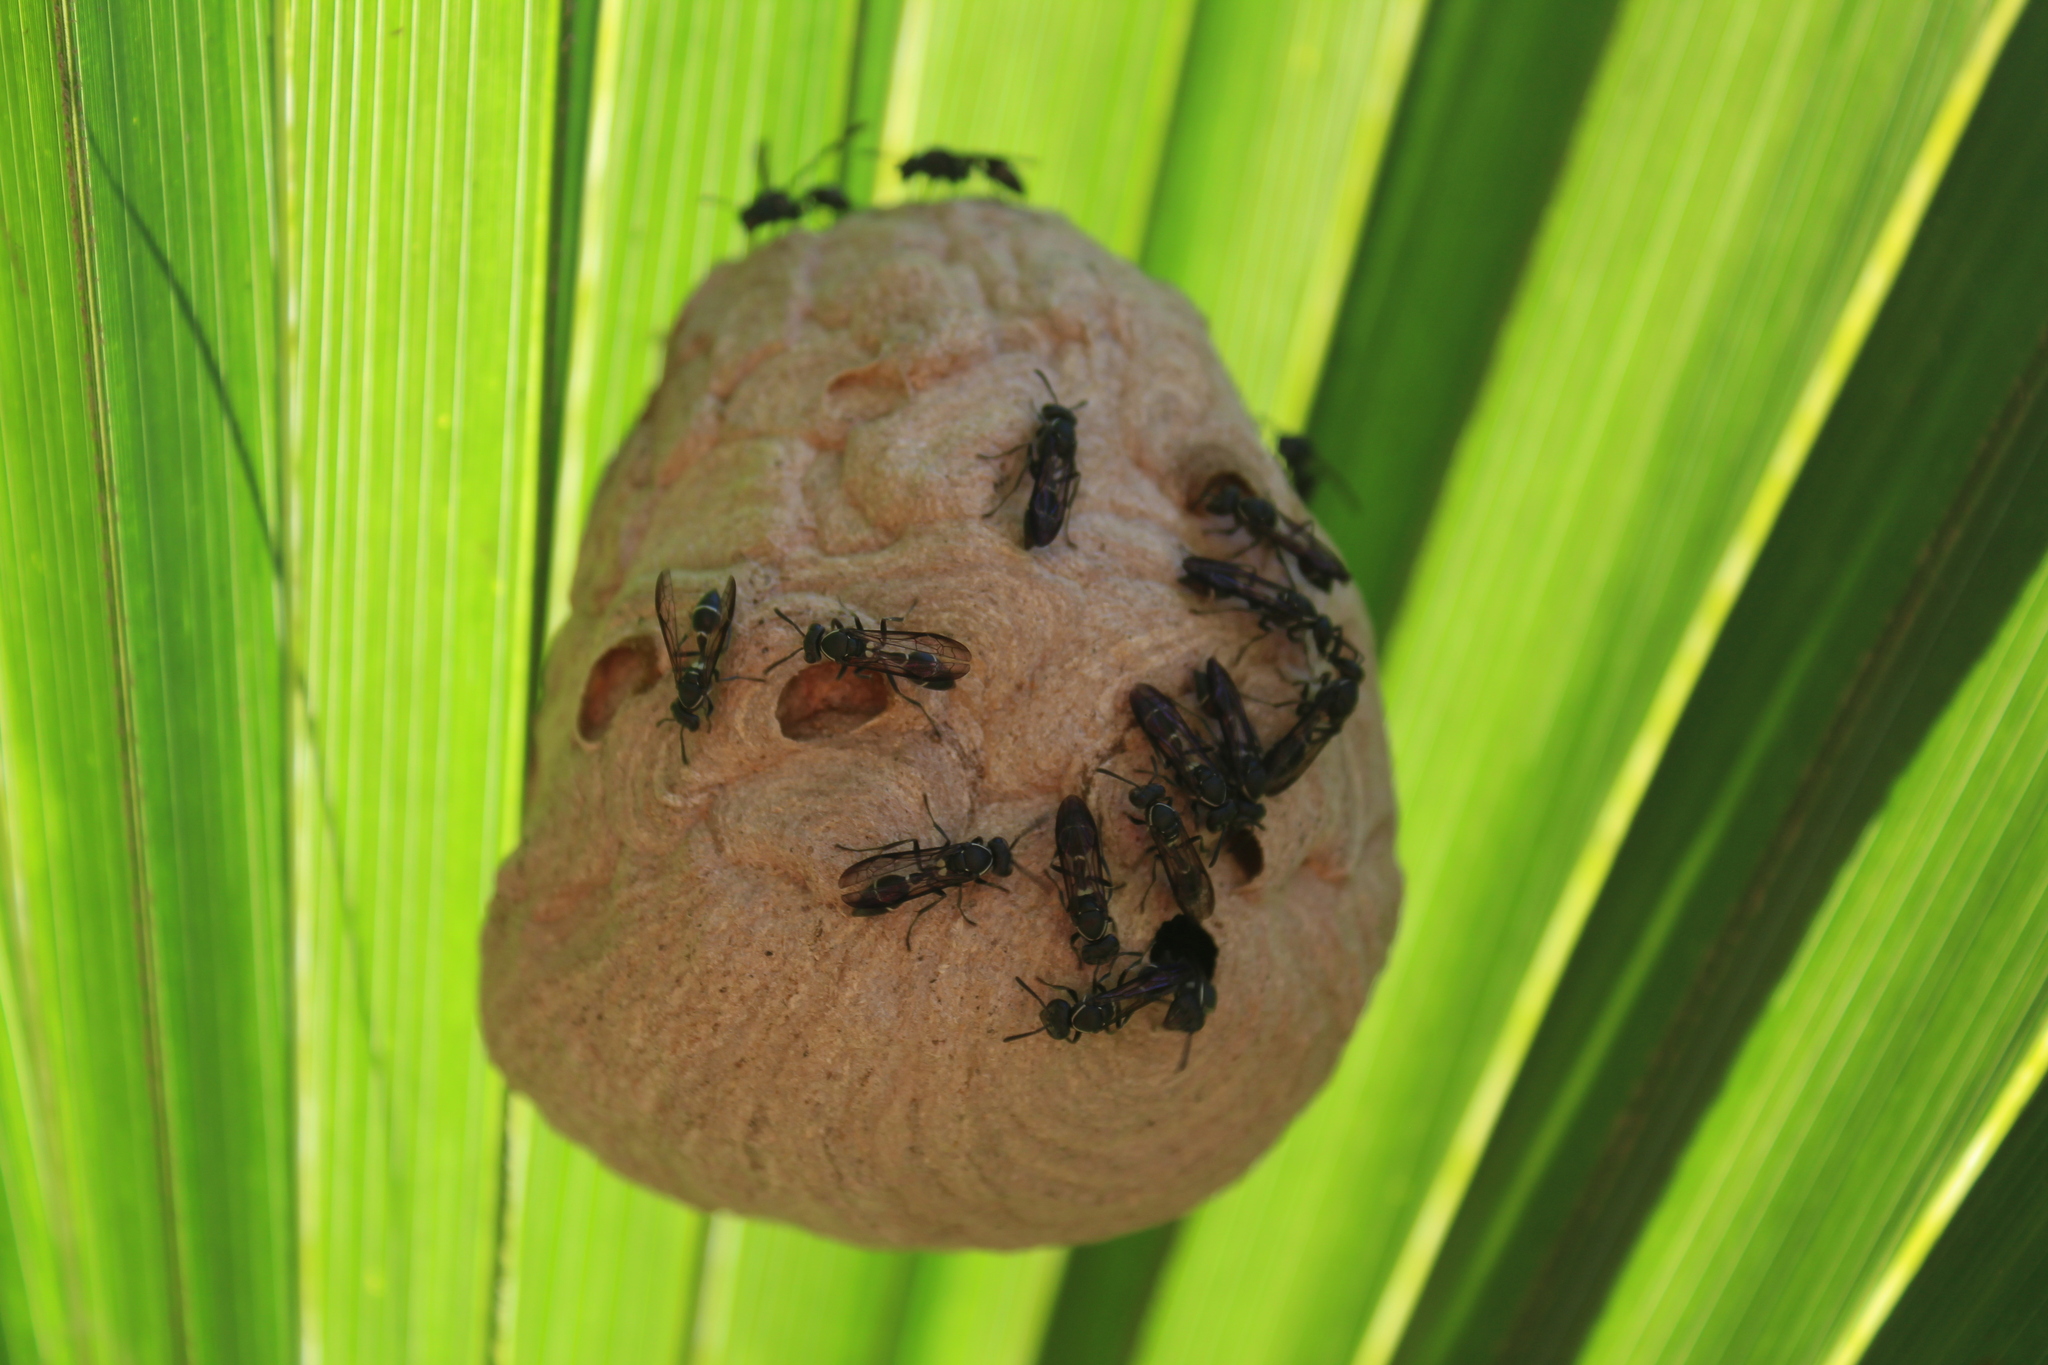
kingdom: Animalia
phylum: Arthropoda
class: Insecta
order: Hymenoptera
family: Eumenidae
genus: Polybia
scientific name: Polybia plebeja
